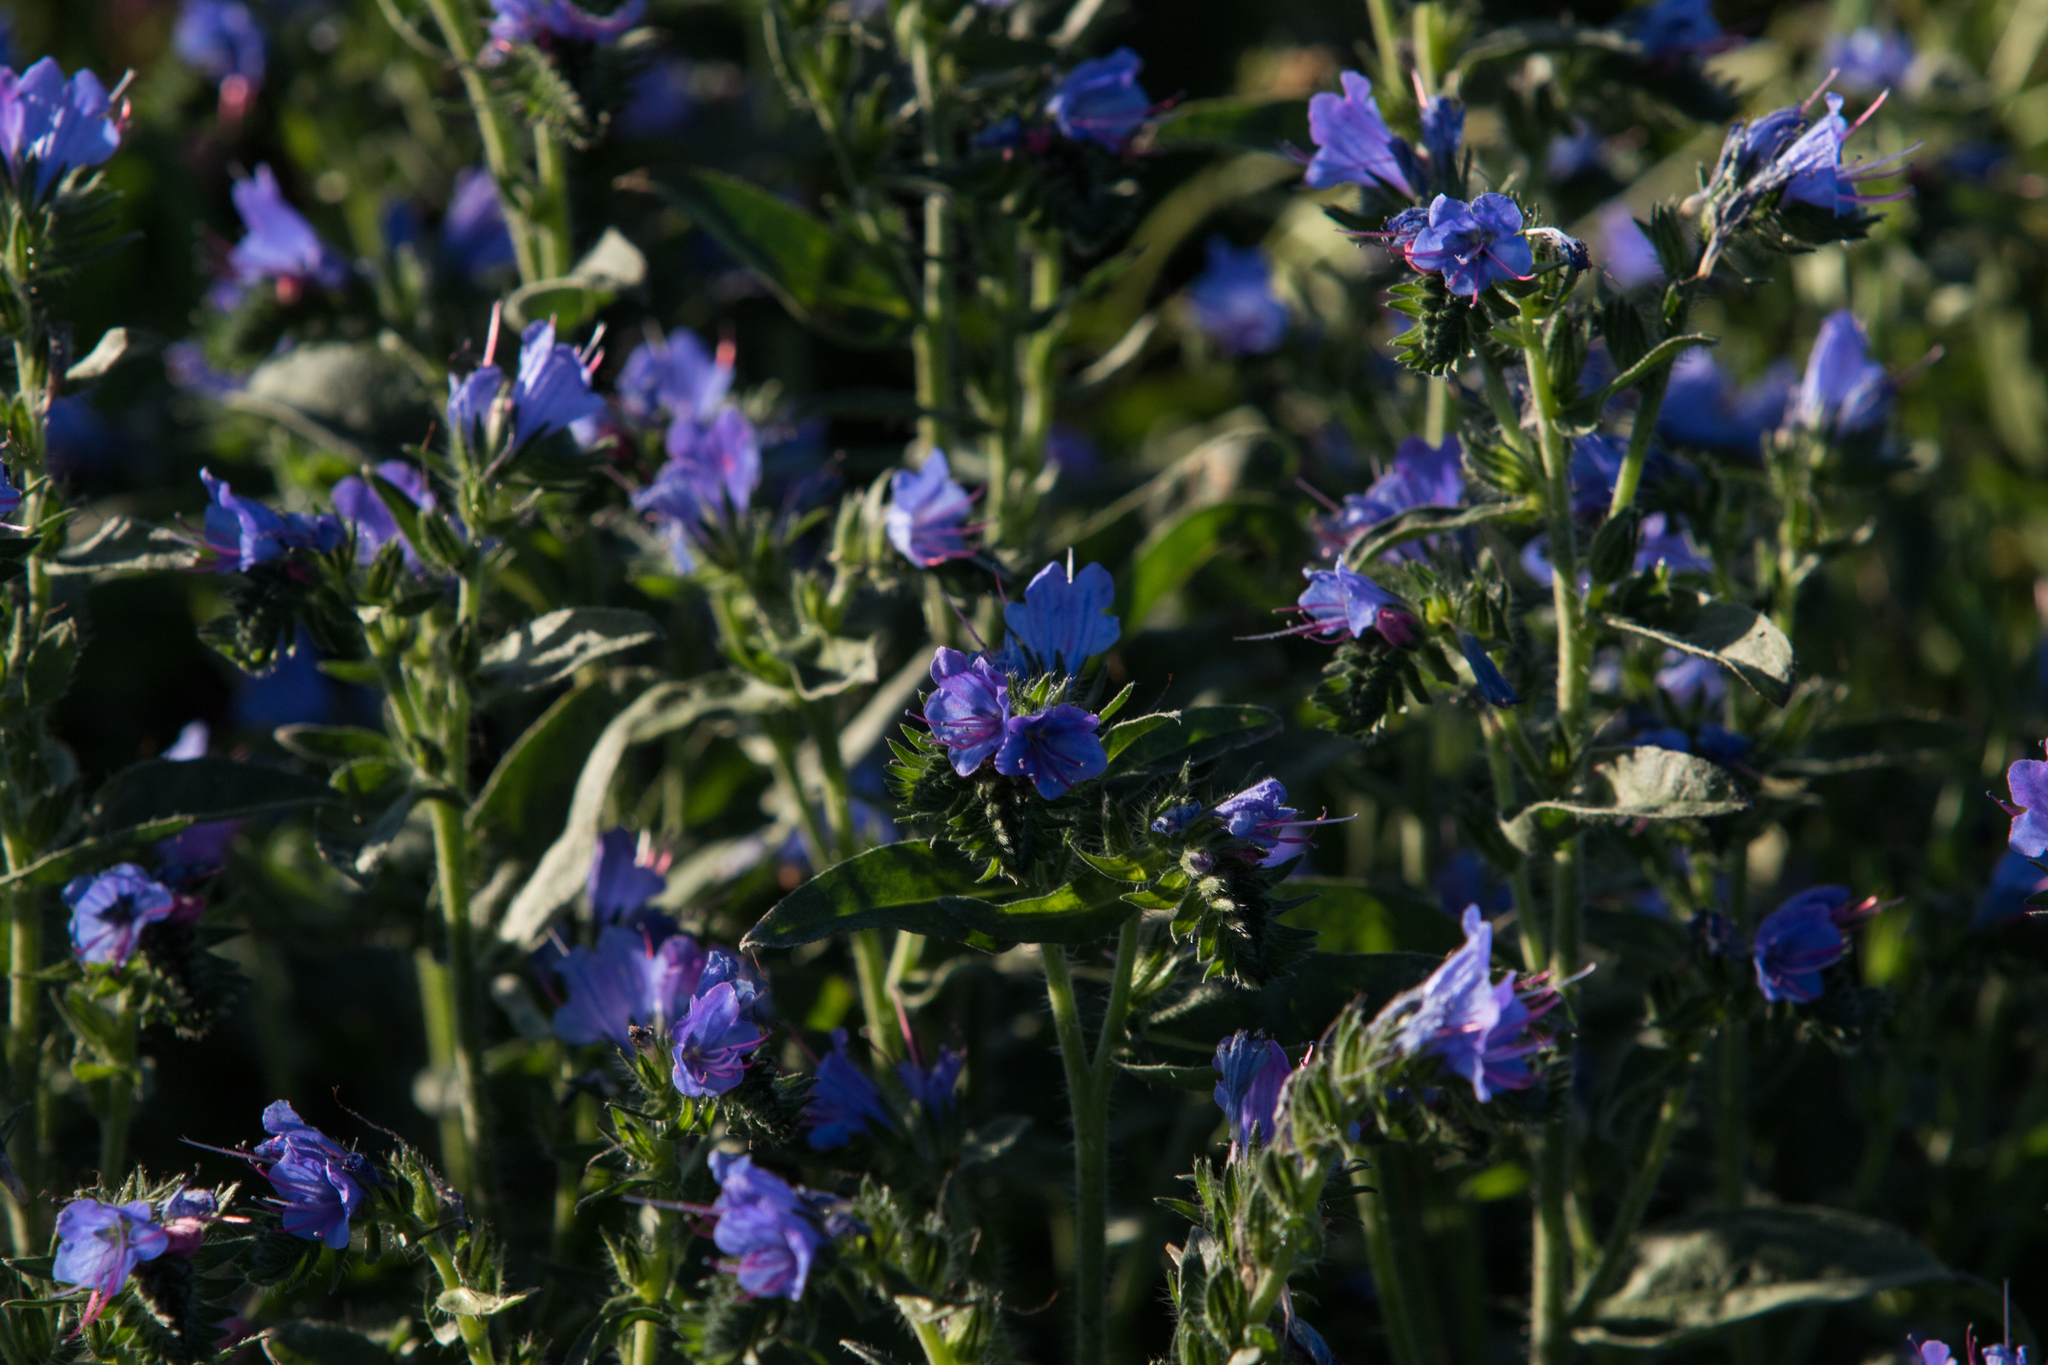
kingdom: Plantae
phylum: Tracheophyta
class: Magnoliopsida
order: Boraginales
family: Boraginaceae
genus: Echium
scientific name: Echium vulgare
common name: Common viper's bugloss
